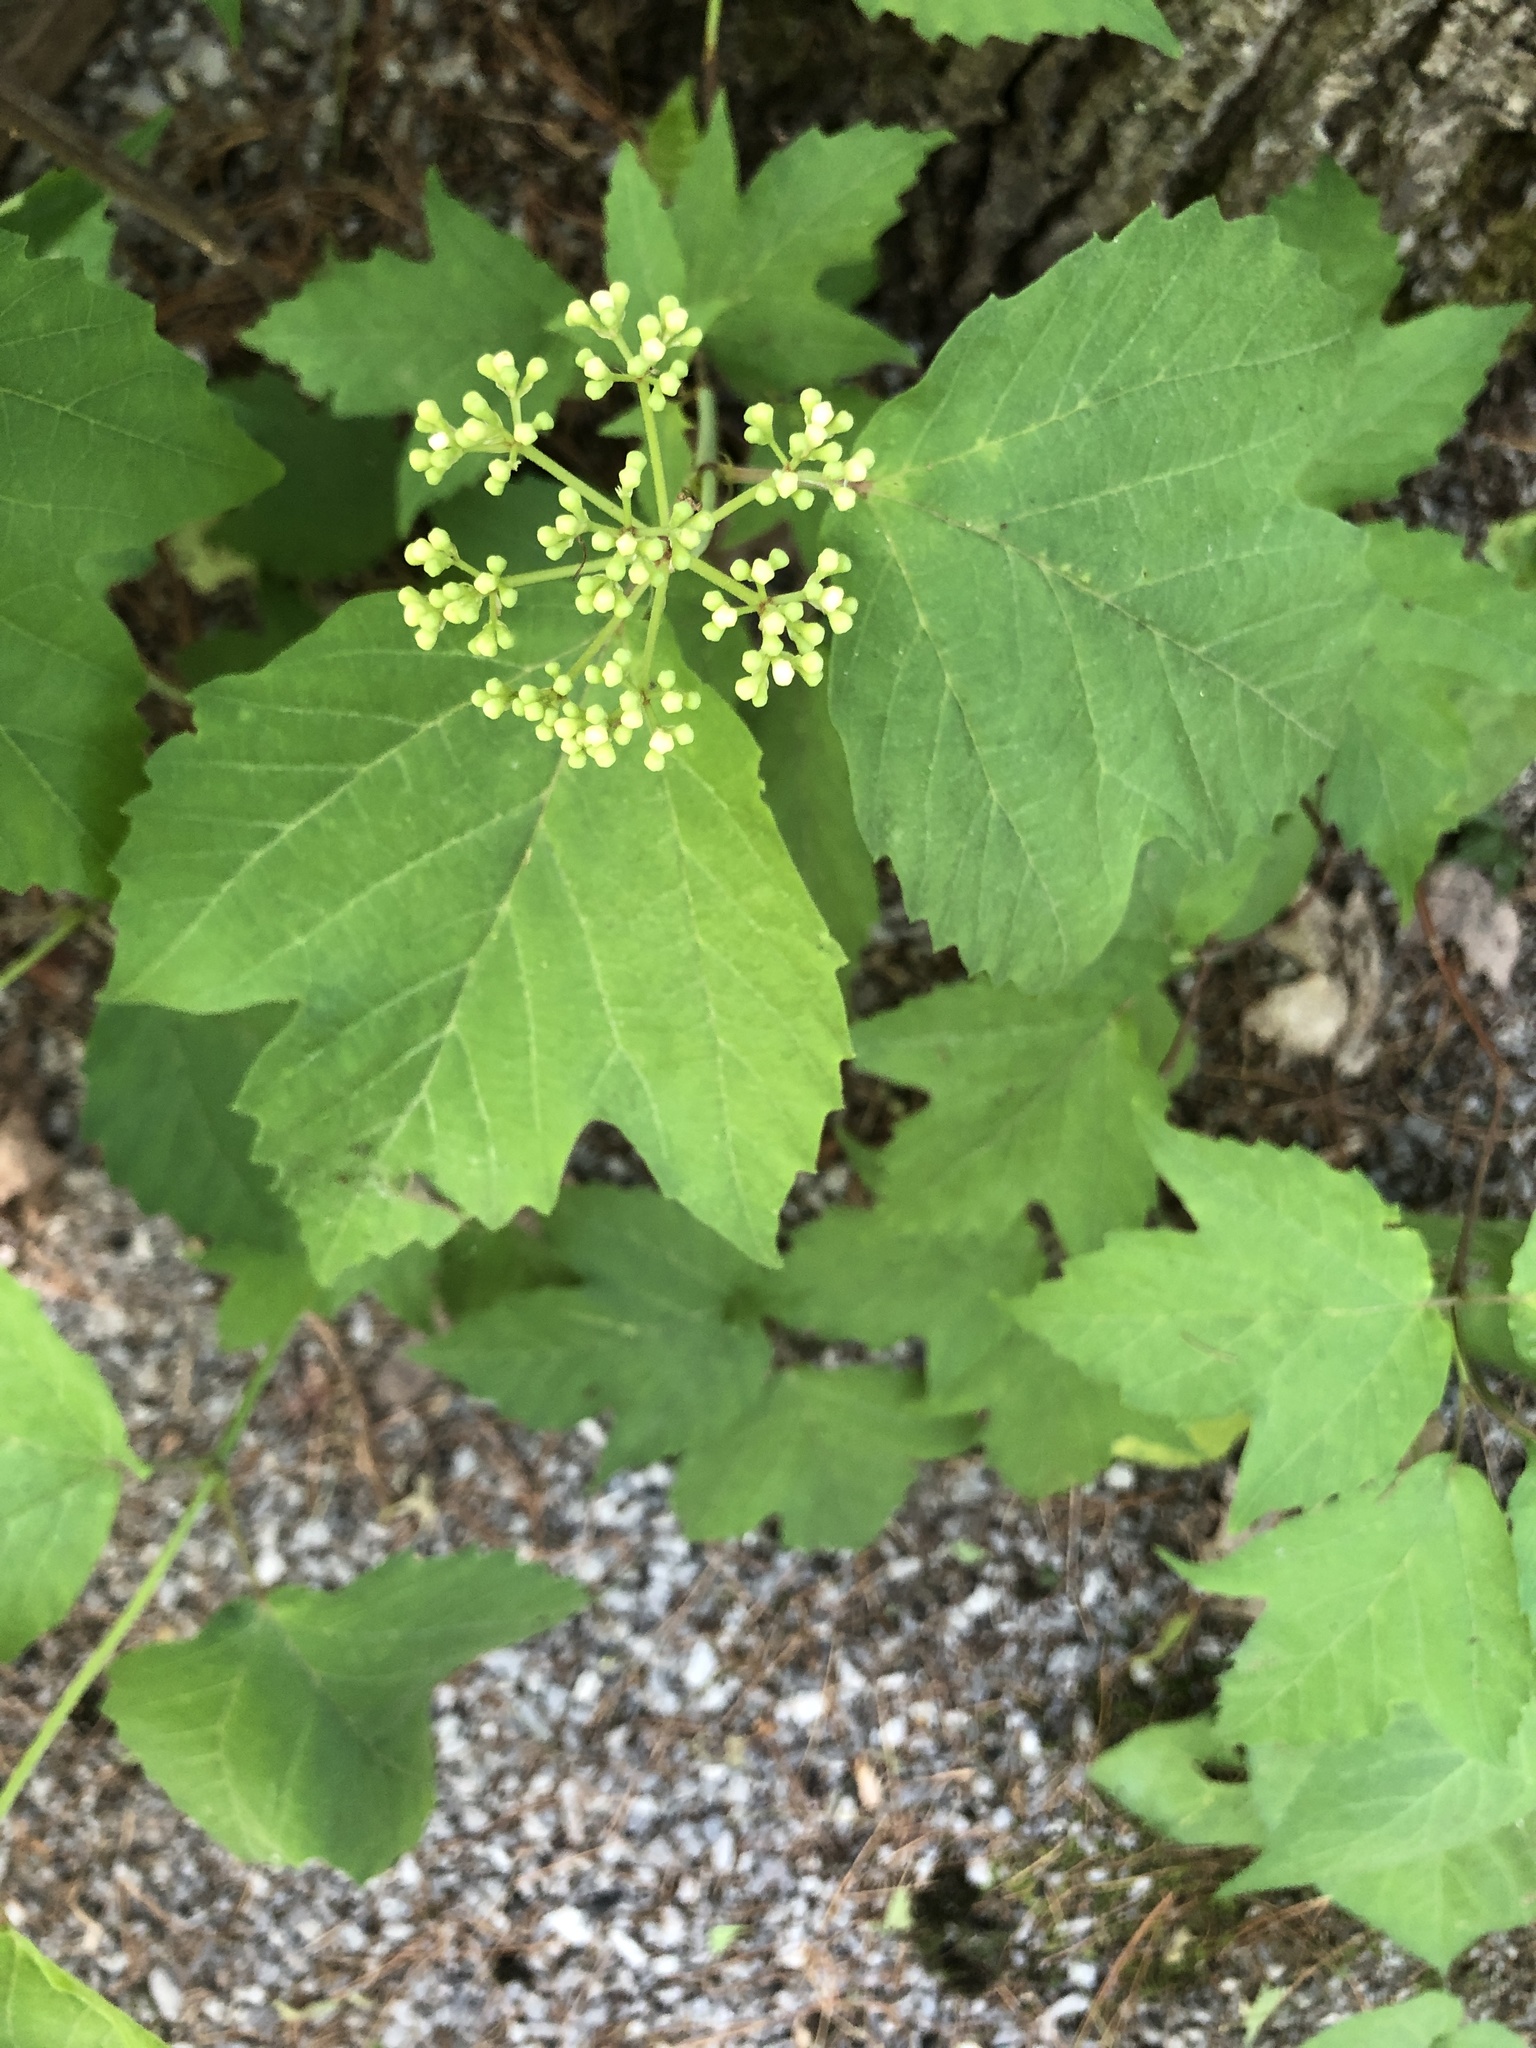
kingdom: Plantae
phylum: Tracheophyta
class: Magnoliopsida
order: Dipsacales
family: Viburnaceae
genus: Viburnum
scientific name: Viburnum acerifolium
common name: Dockmackie
